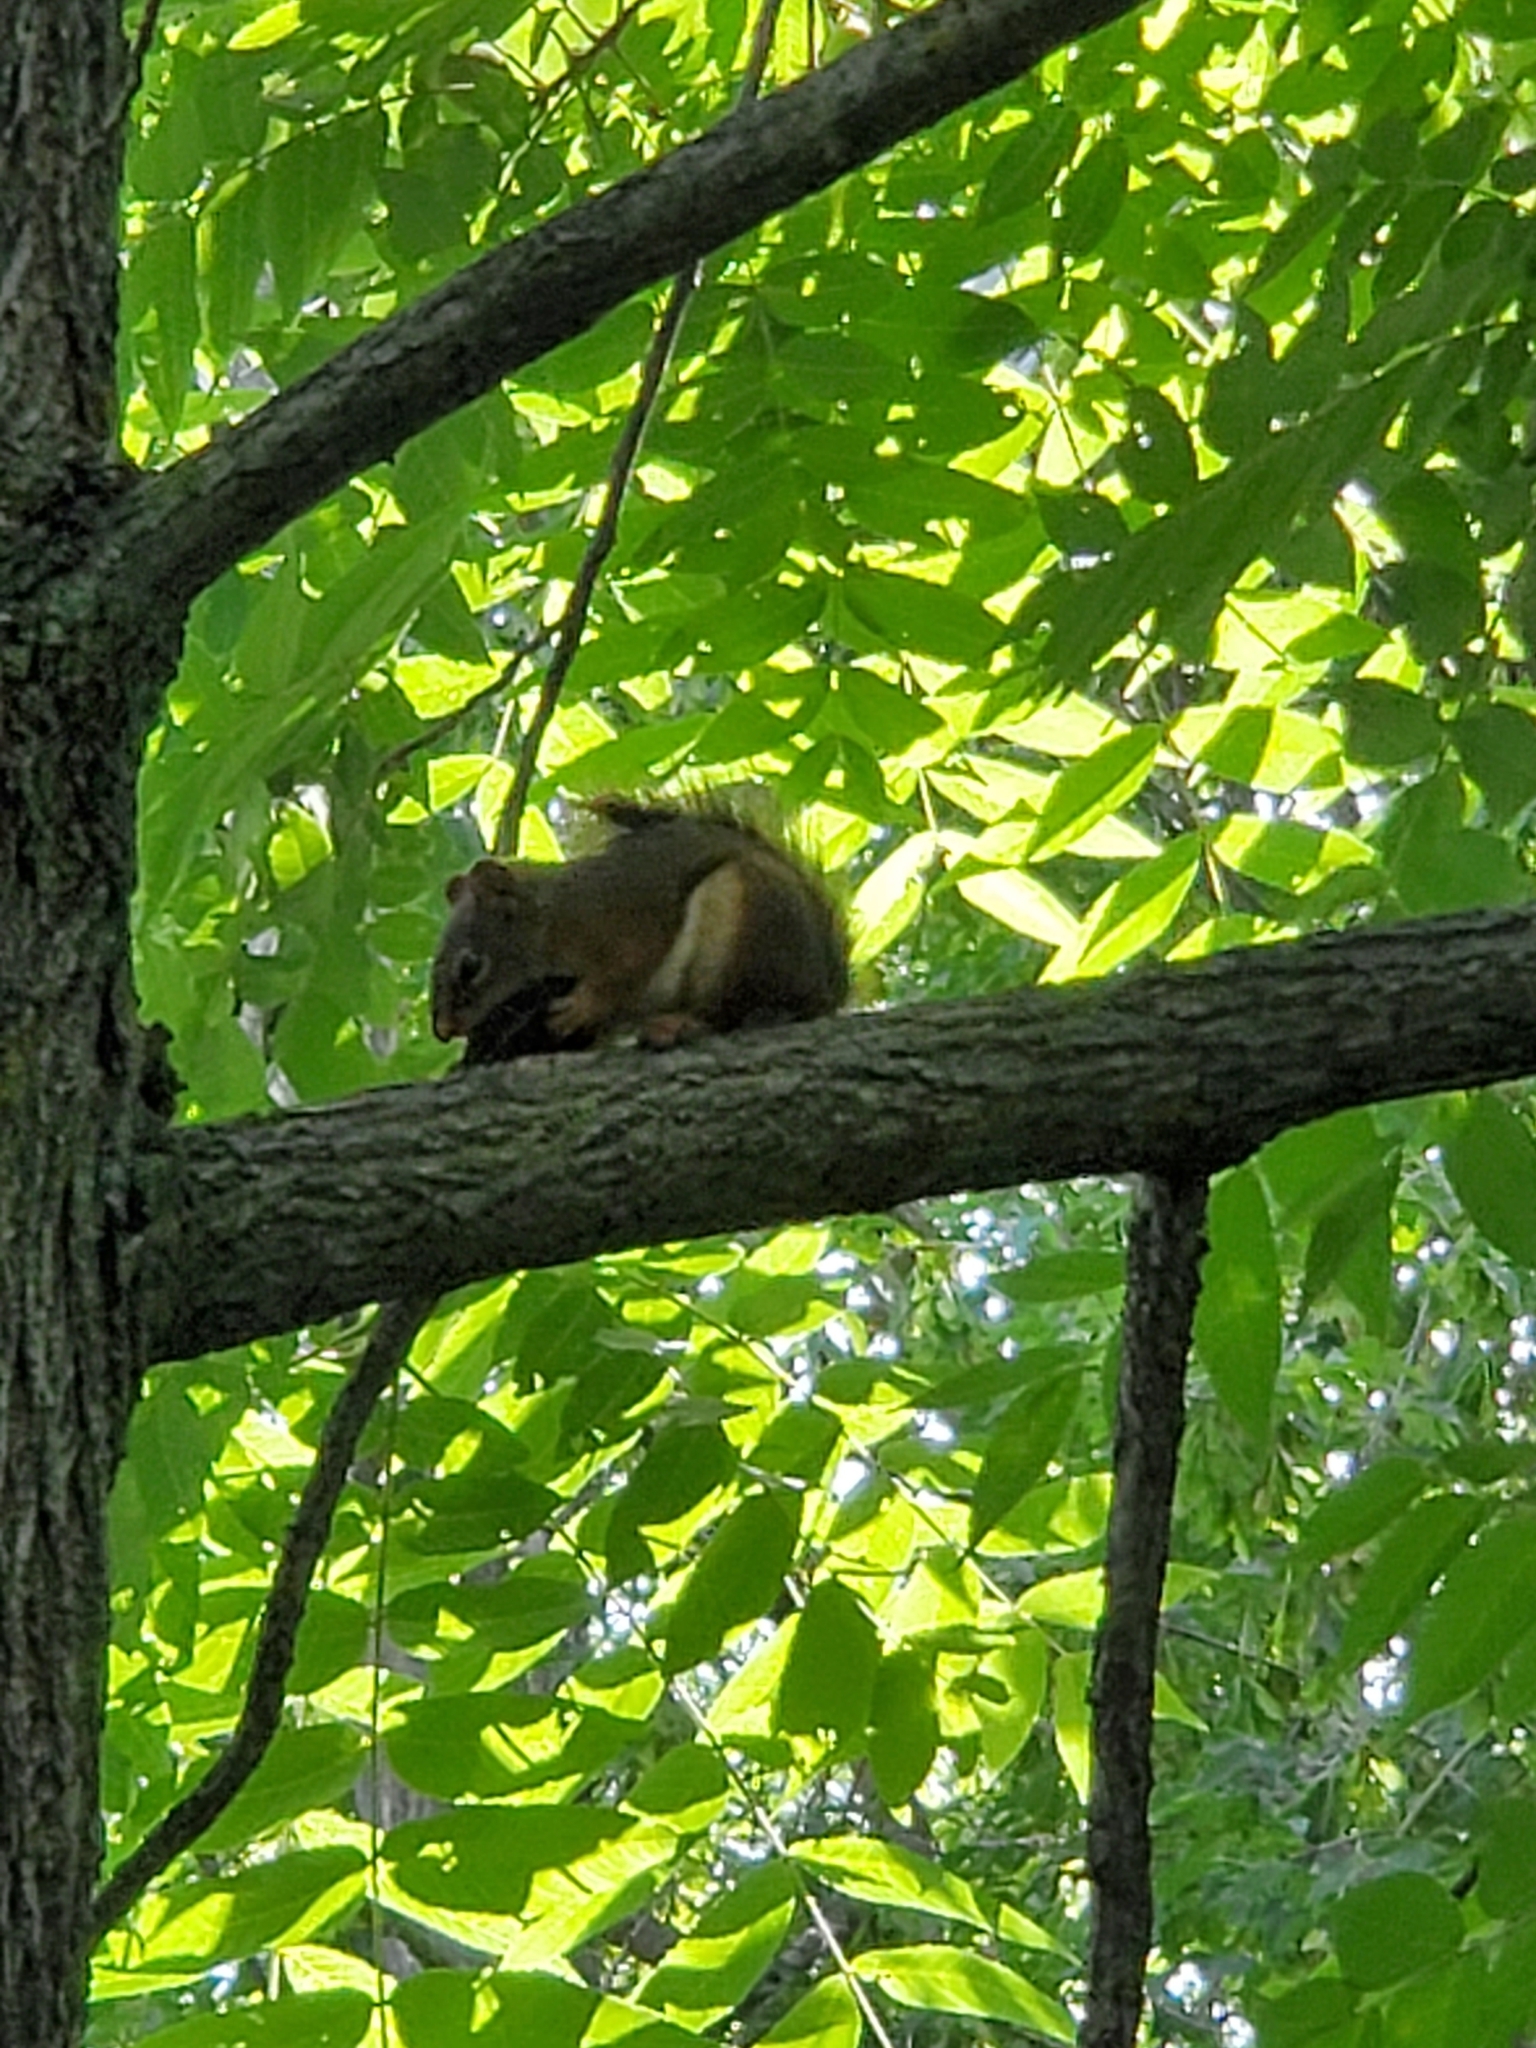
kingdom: Animalia
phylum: Chordata
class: Mammalia
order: Rodentia
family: Sciuridae
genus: Tamiasciurus
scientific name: Tamiasciurus hudsonicus
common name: Red squirrel
